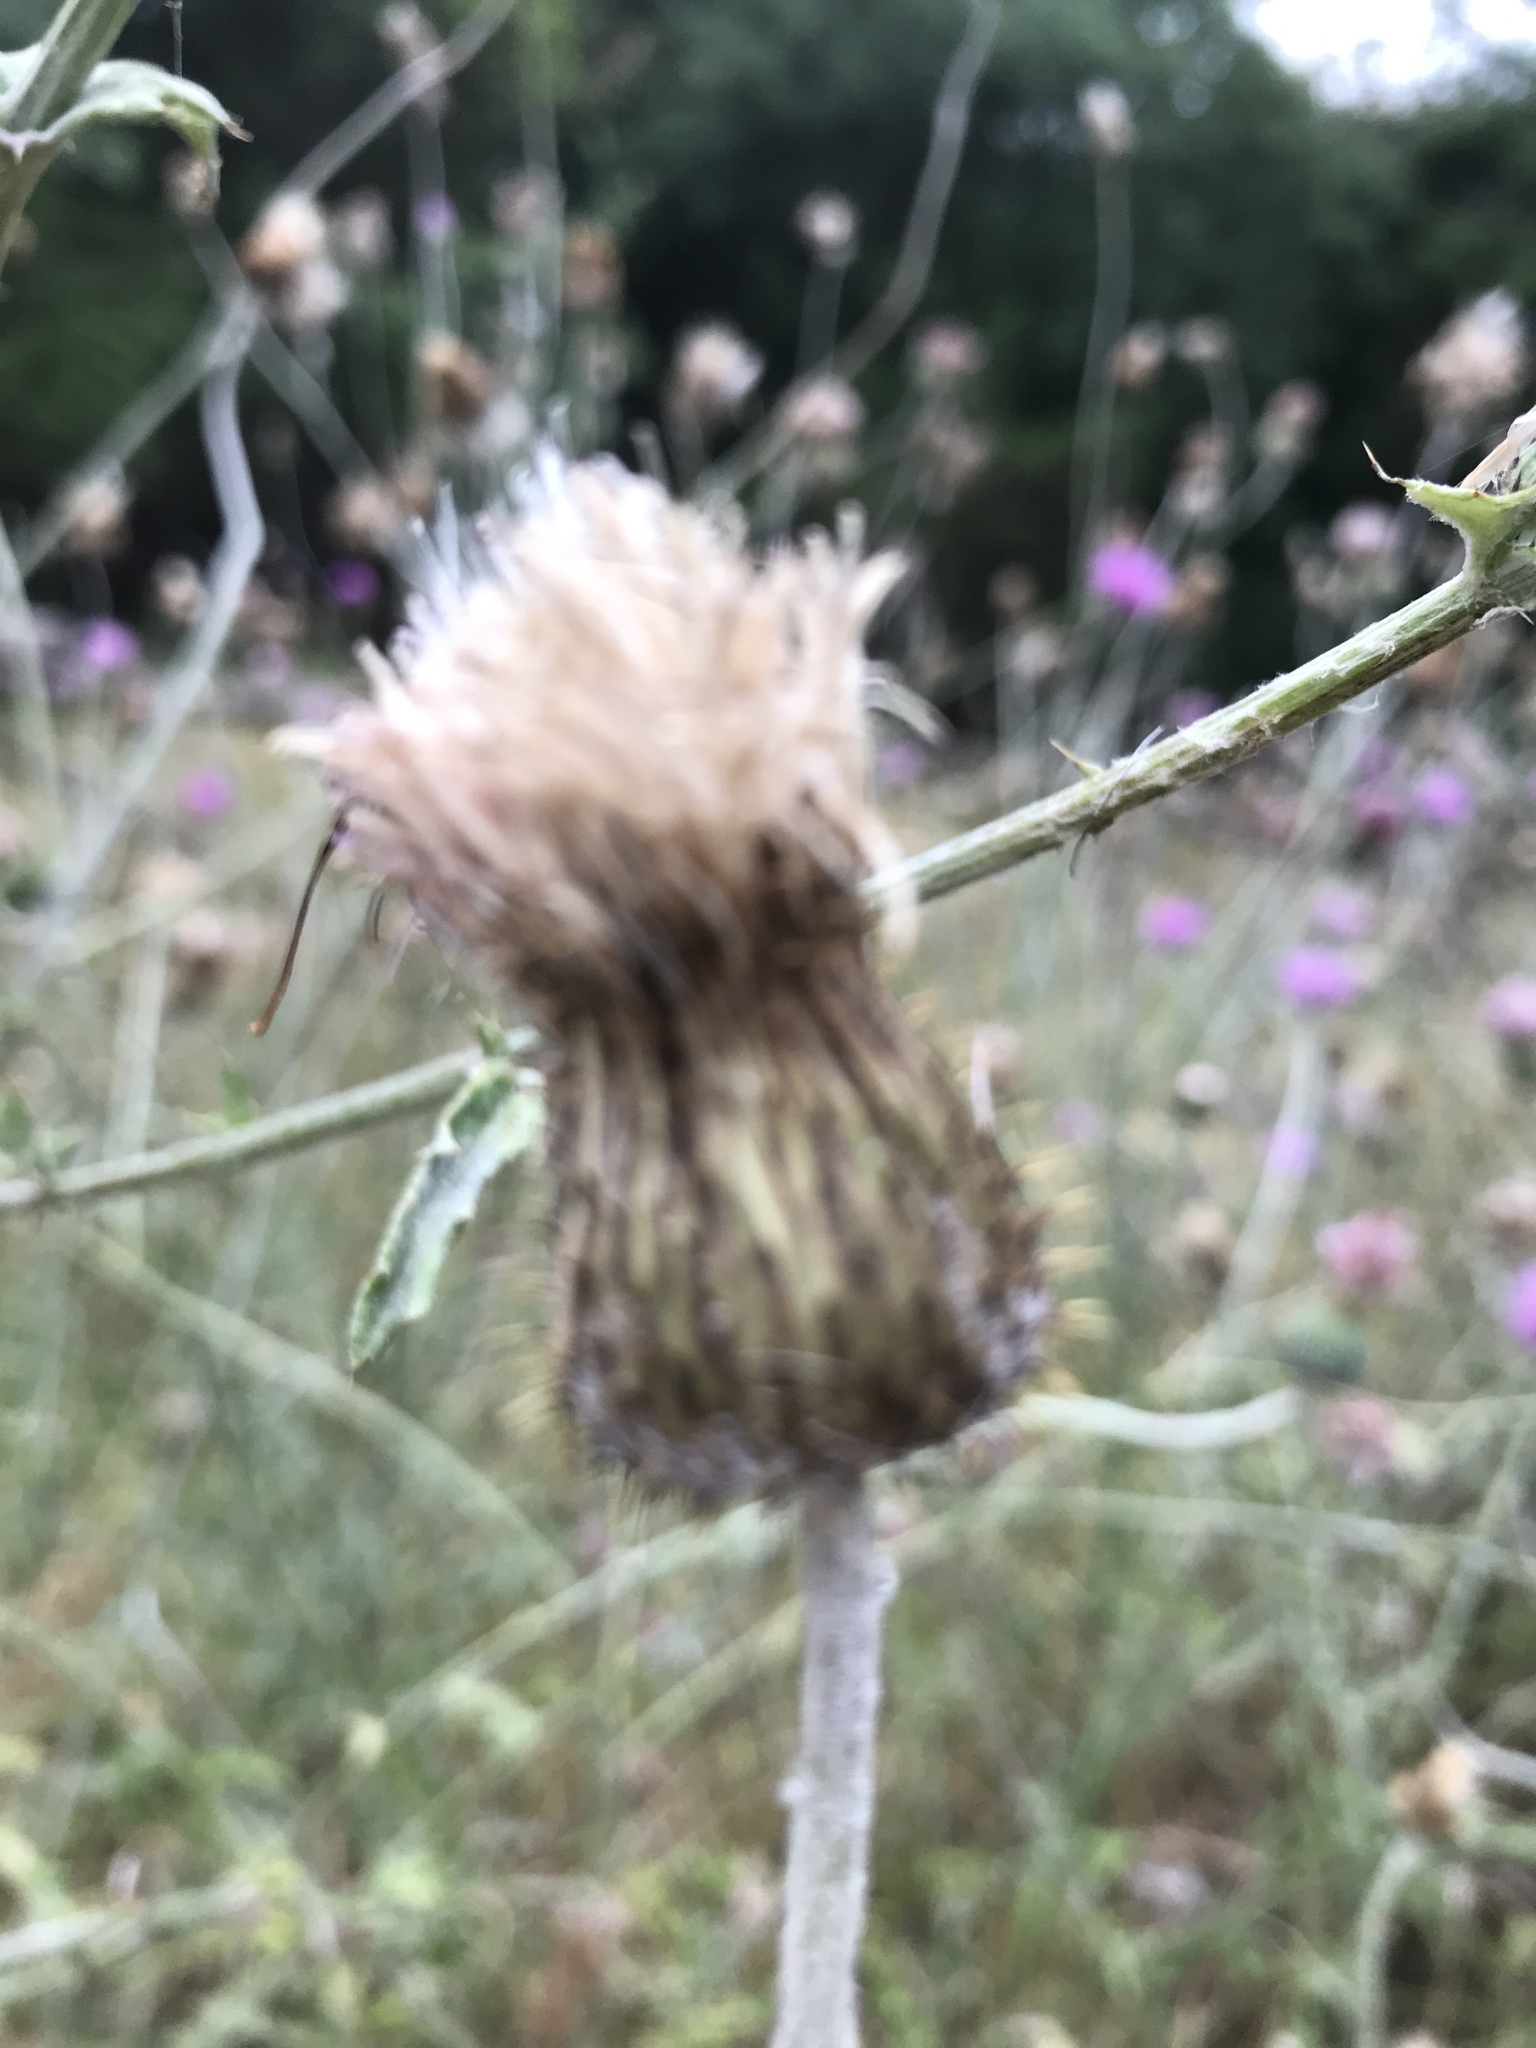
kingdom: Plantae
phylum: Tracheophyta
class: Magnoliopsida
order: Asterales
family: Asteraceae
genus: Cirsium
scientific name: Cirsium texanum
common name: Texas purple thistle
